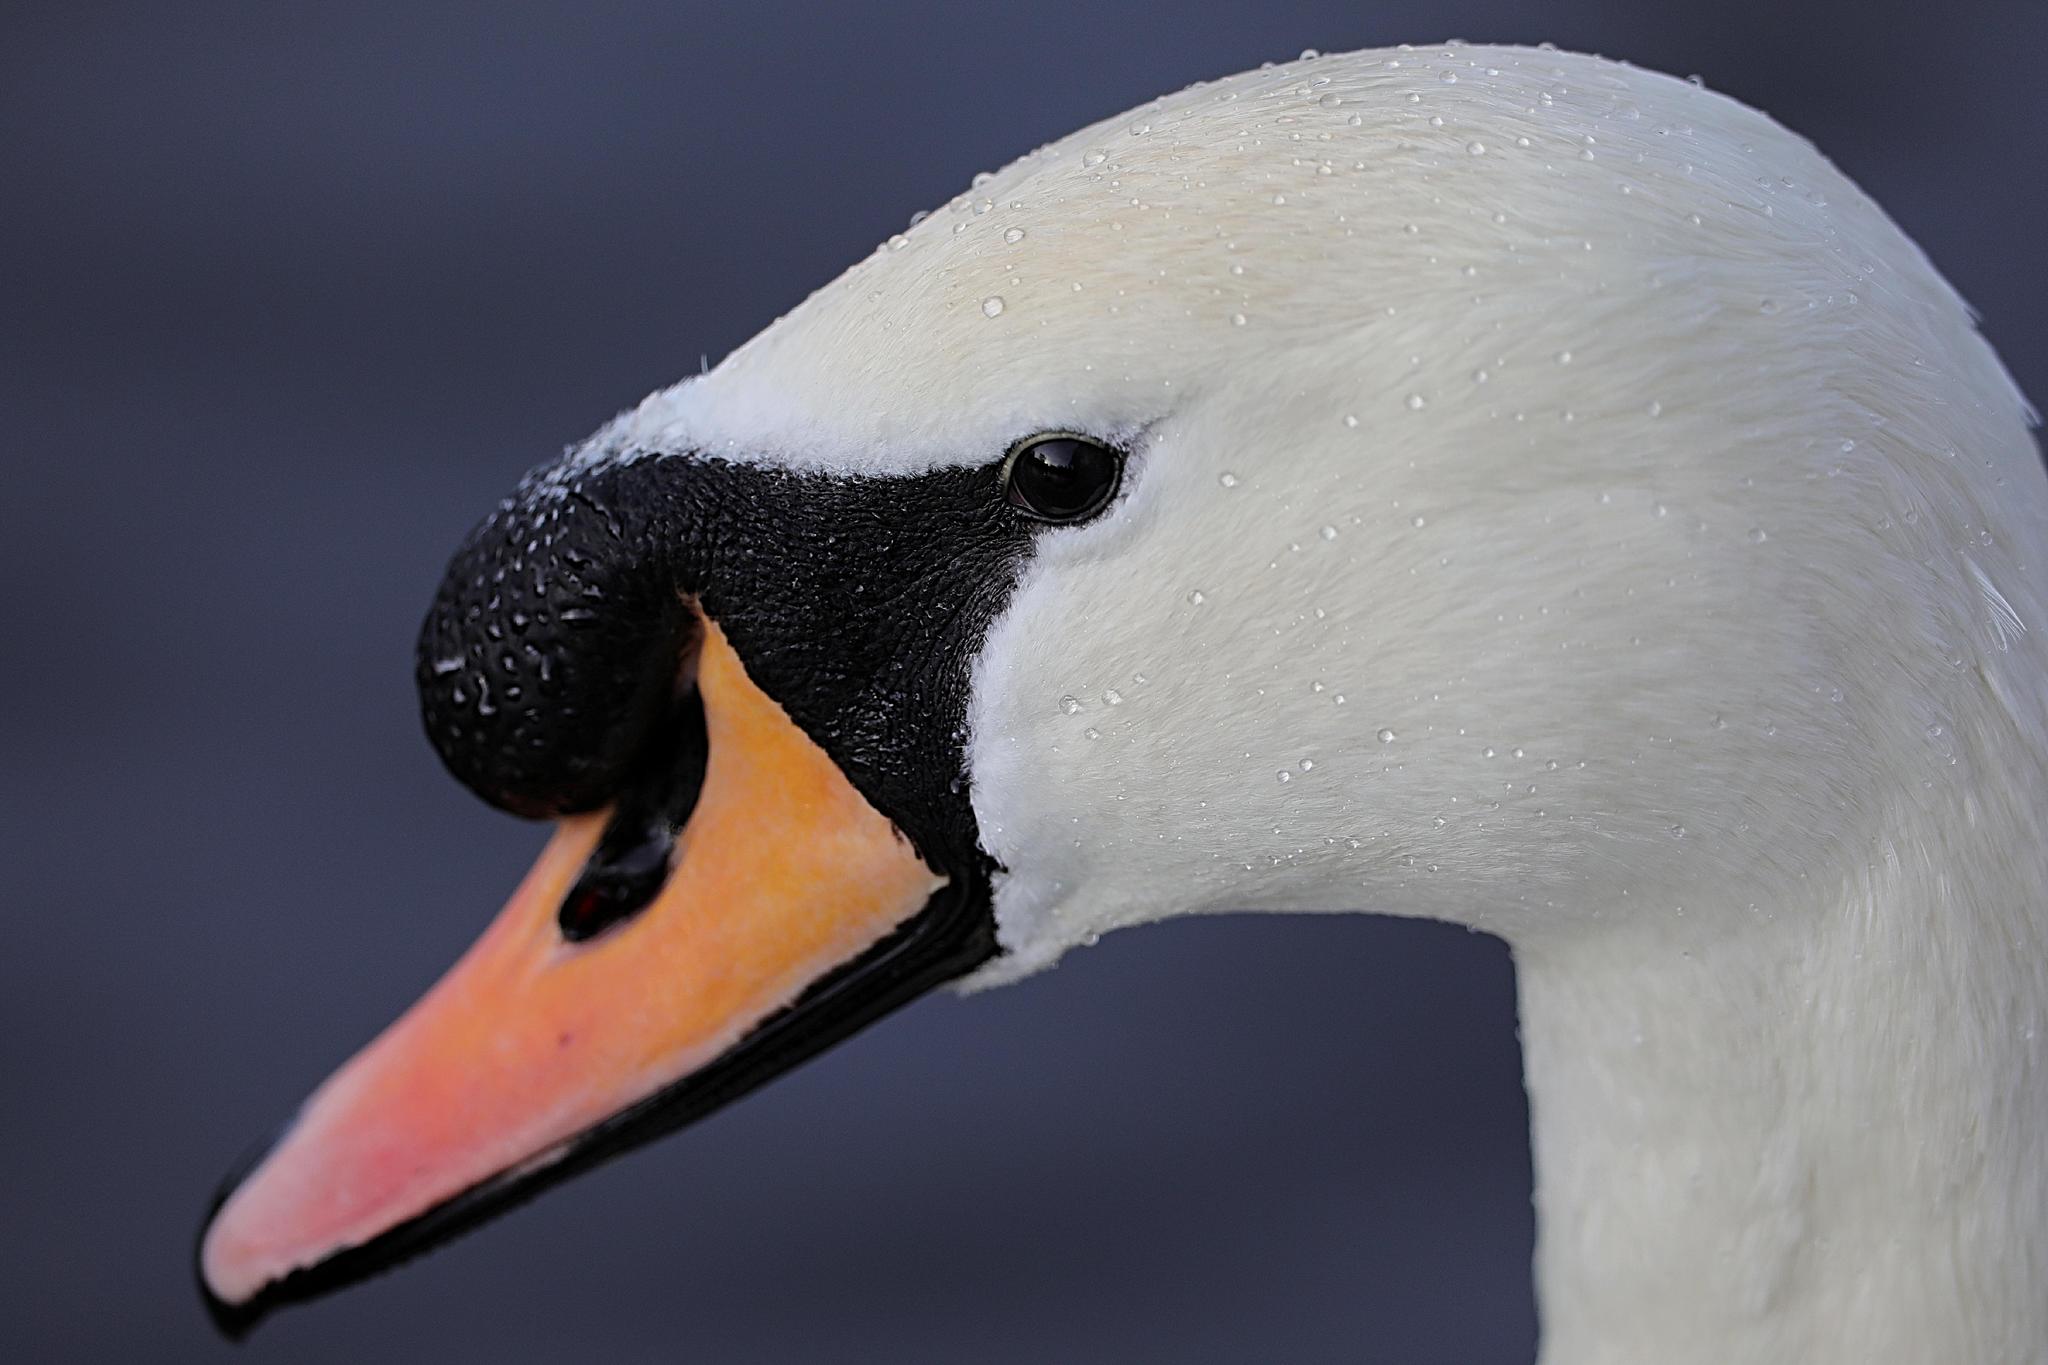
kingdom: Animalia
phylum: Chordata
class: Aves
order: Anseriformes
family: Anatidae
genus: Cygnus
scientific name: Cygnus olor
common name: Mute swan
